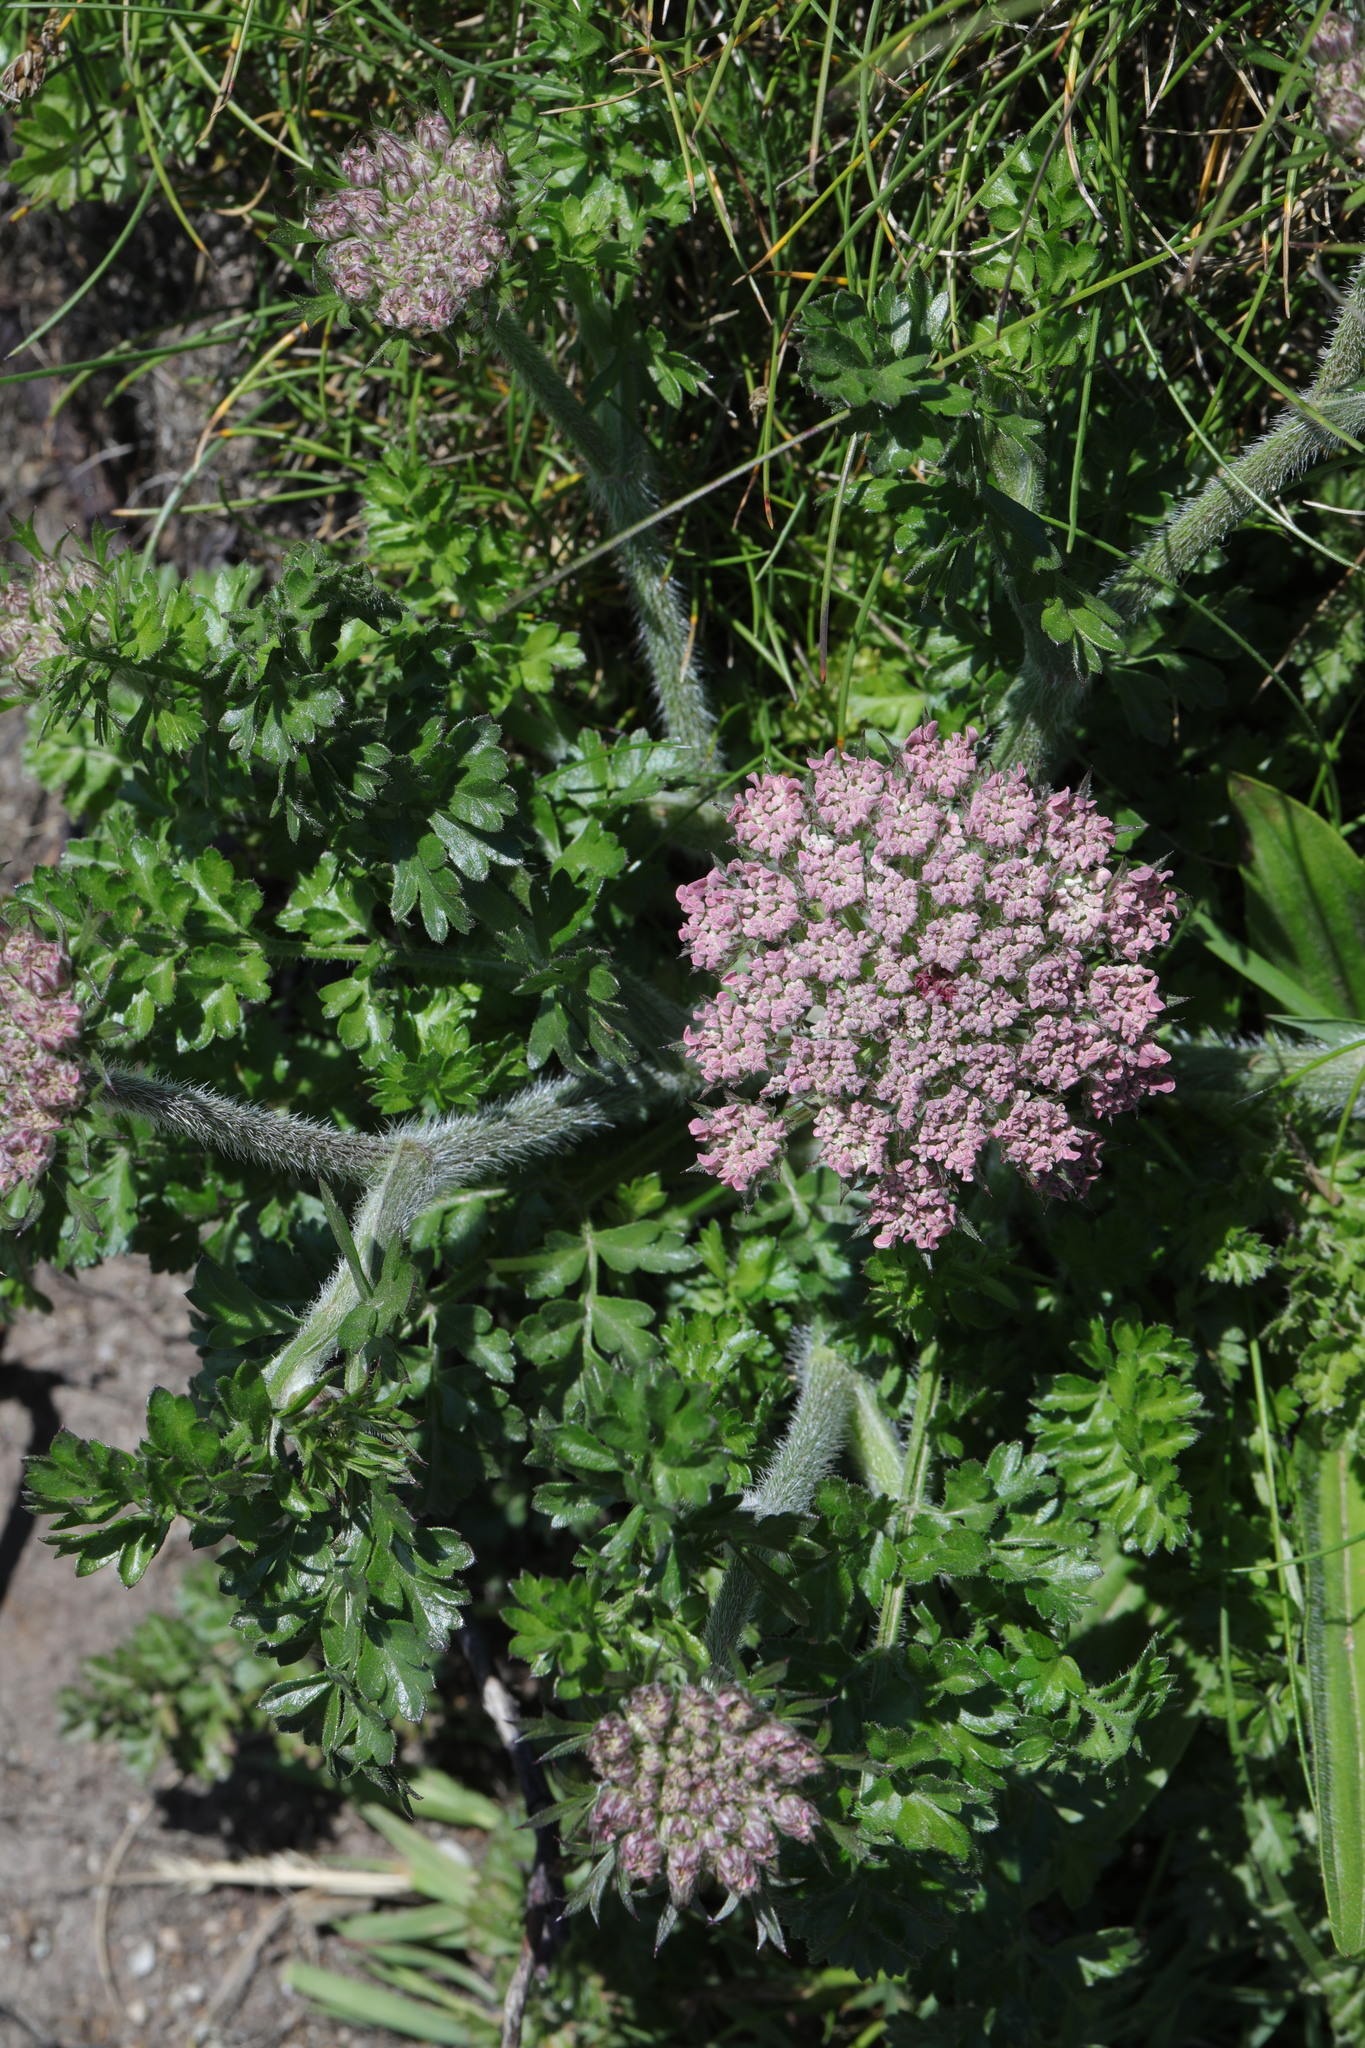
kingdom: Plantae
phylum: Tracheophyta
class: Magnoliopsida
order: Apiales
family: Apiaceae
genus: Daucus
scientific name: Daucus carota
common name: Wild carrot
